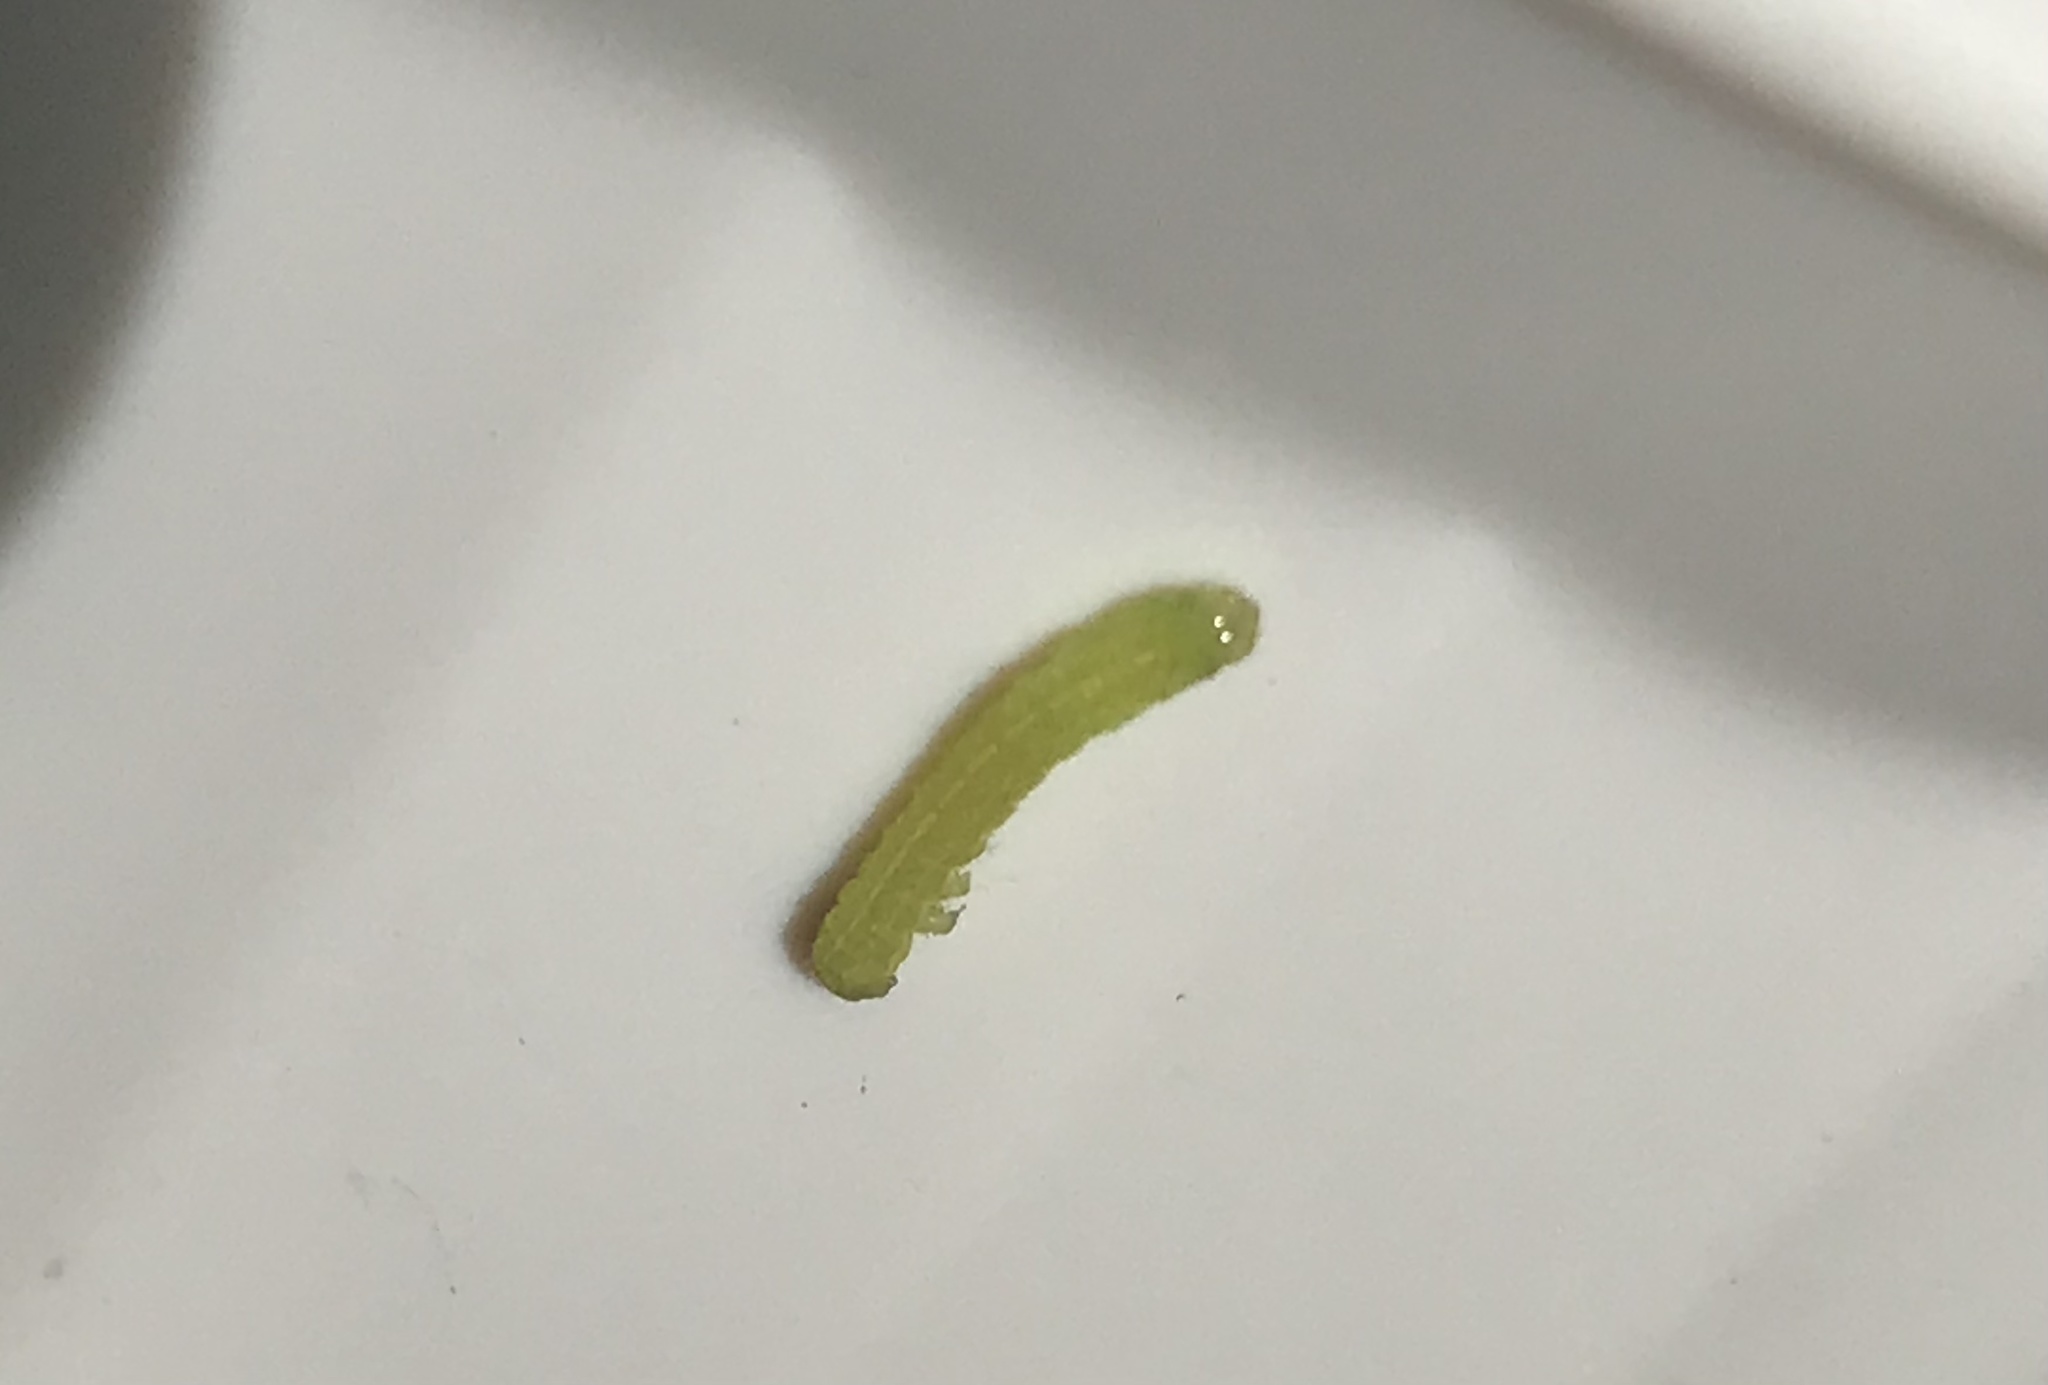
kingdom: Animalia
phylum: Arthropoda
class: Insecta
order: Lepidoptera
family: Geometridae
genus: Alsophila
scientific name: Alsophila pometaria
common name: Fall cankerworm
